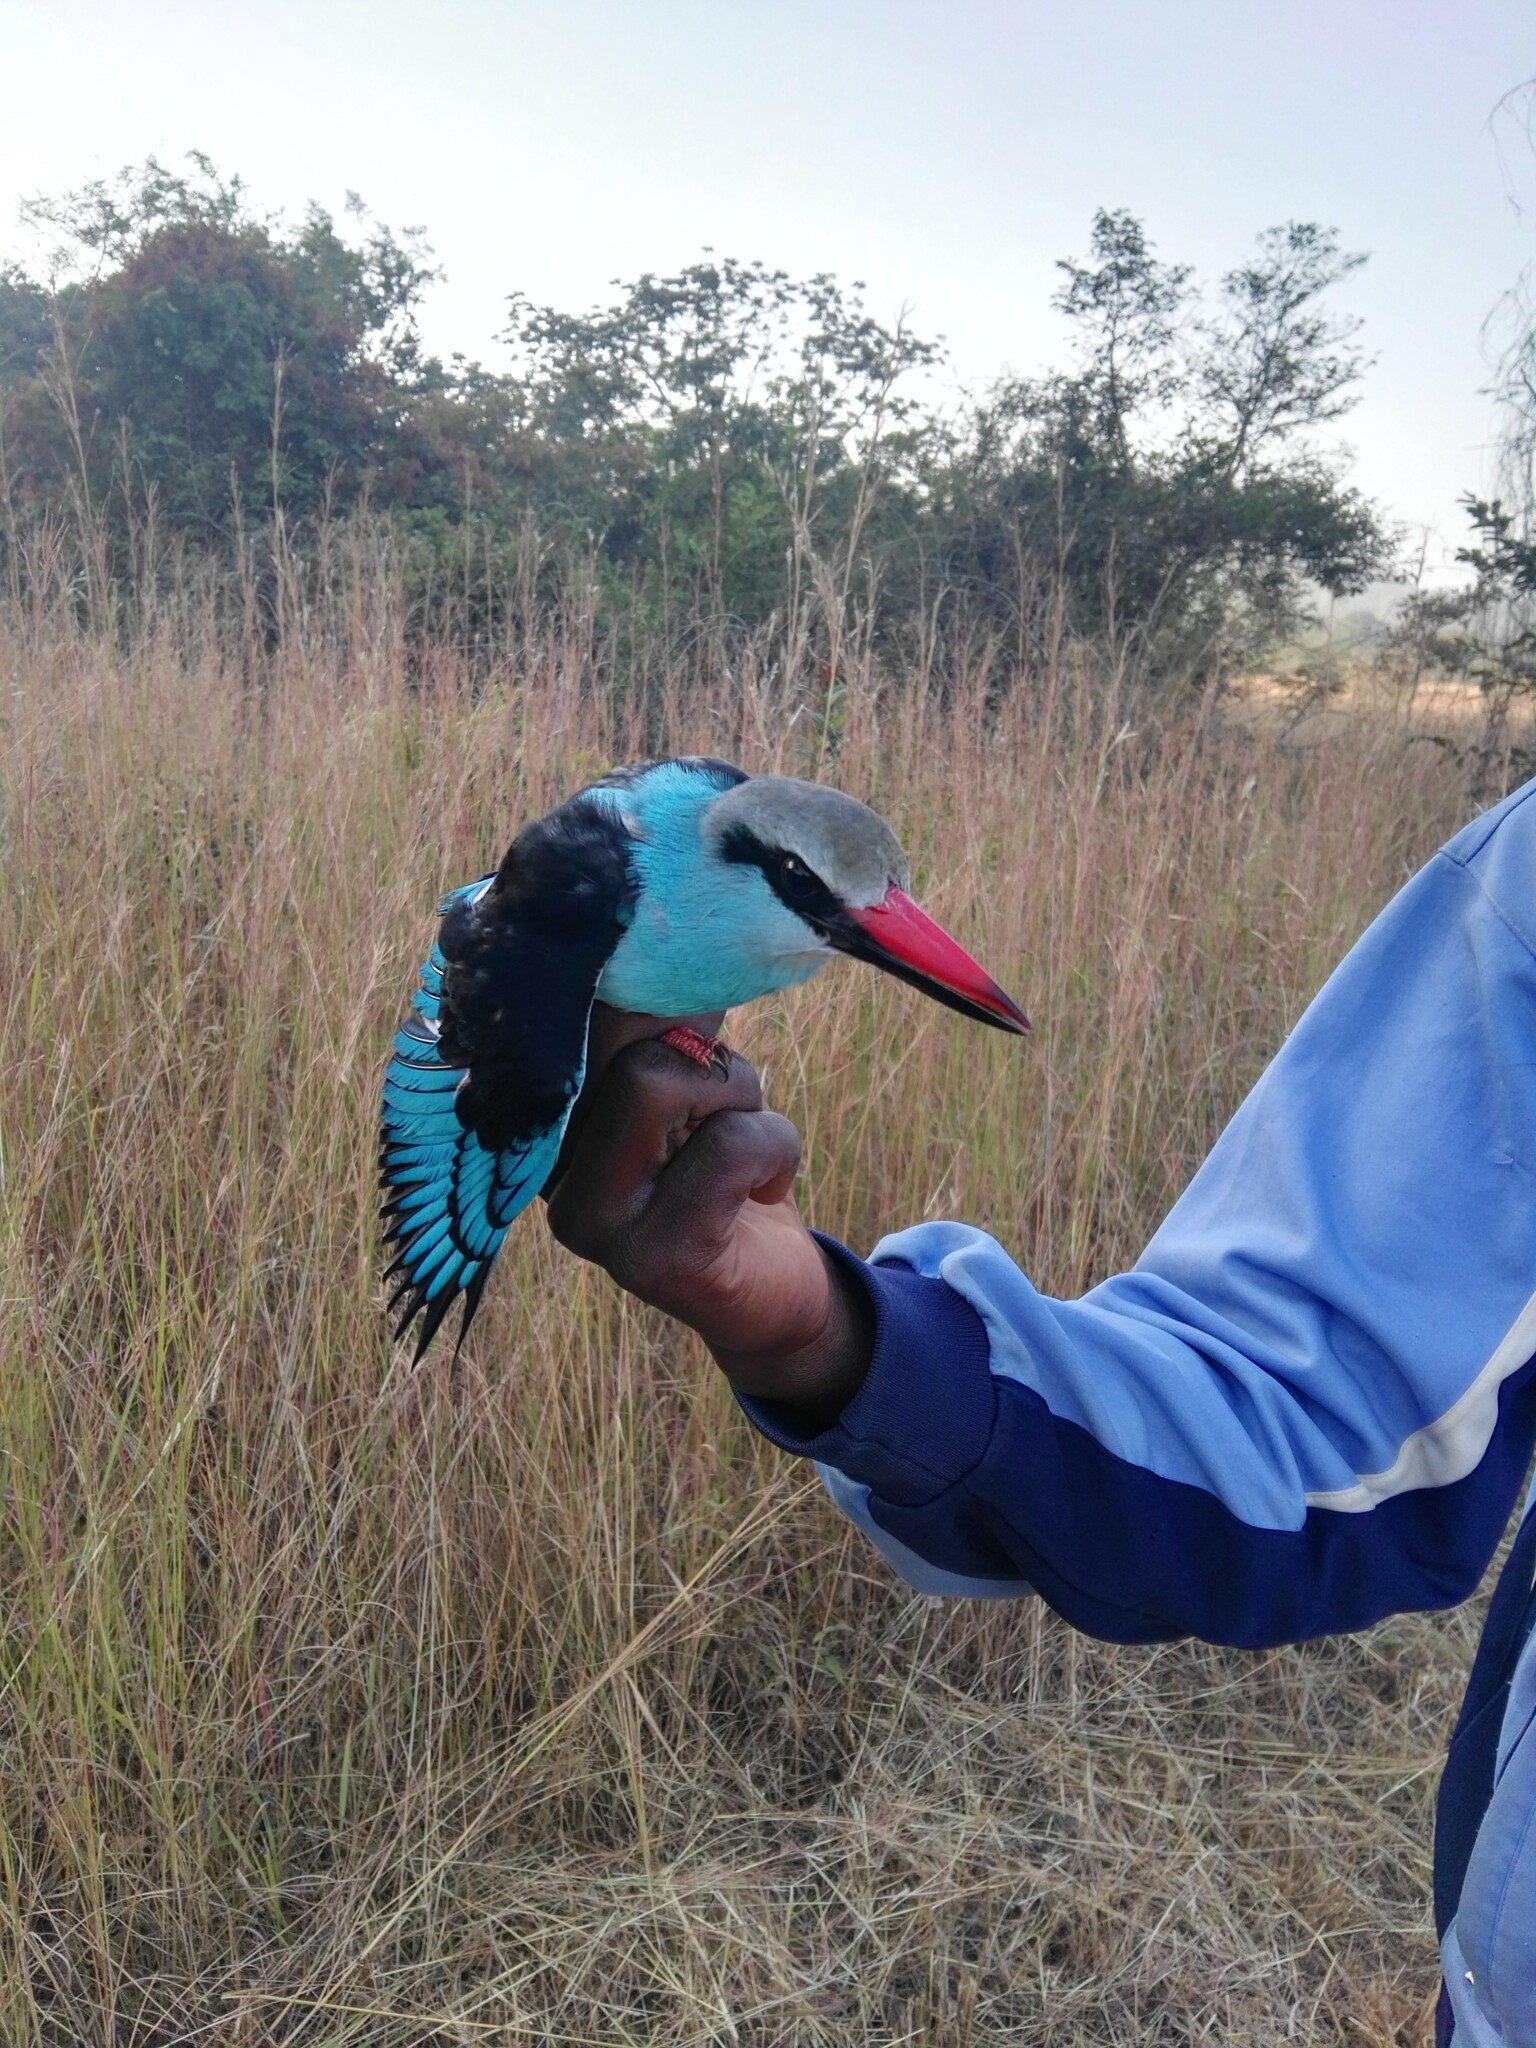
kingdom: Animalia
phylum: Chordata
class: Aves
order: Coraciiformes
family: Alcedinidae
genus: Halcyon
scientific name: Halcyon malimbica
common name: Blue-breasted kingfisher
